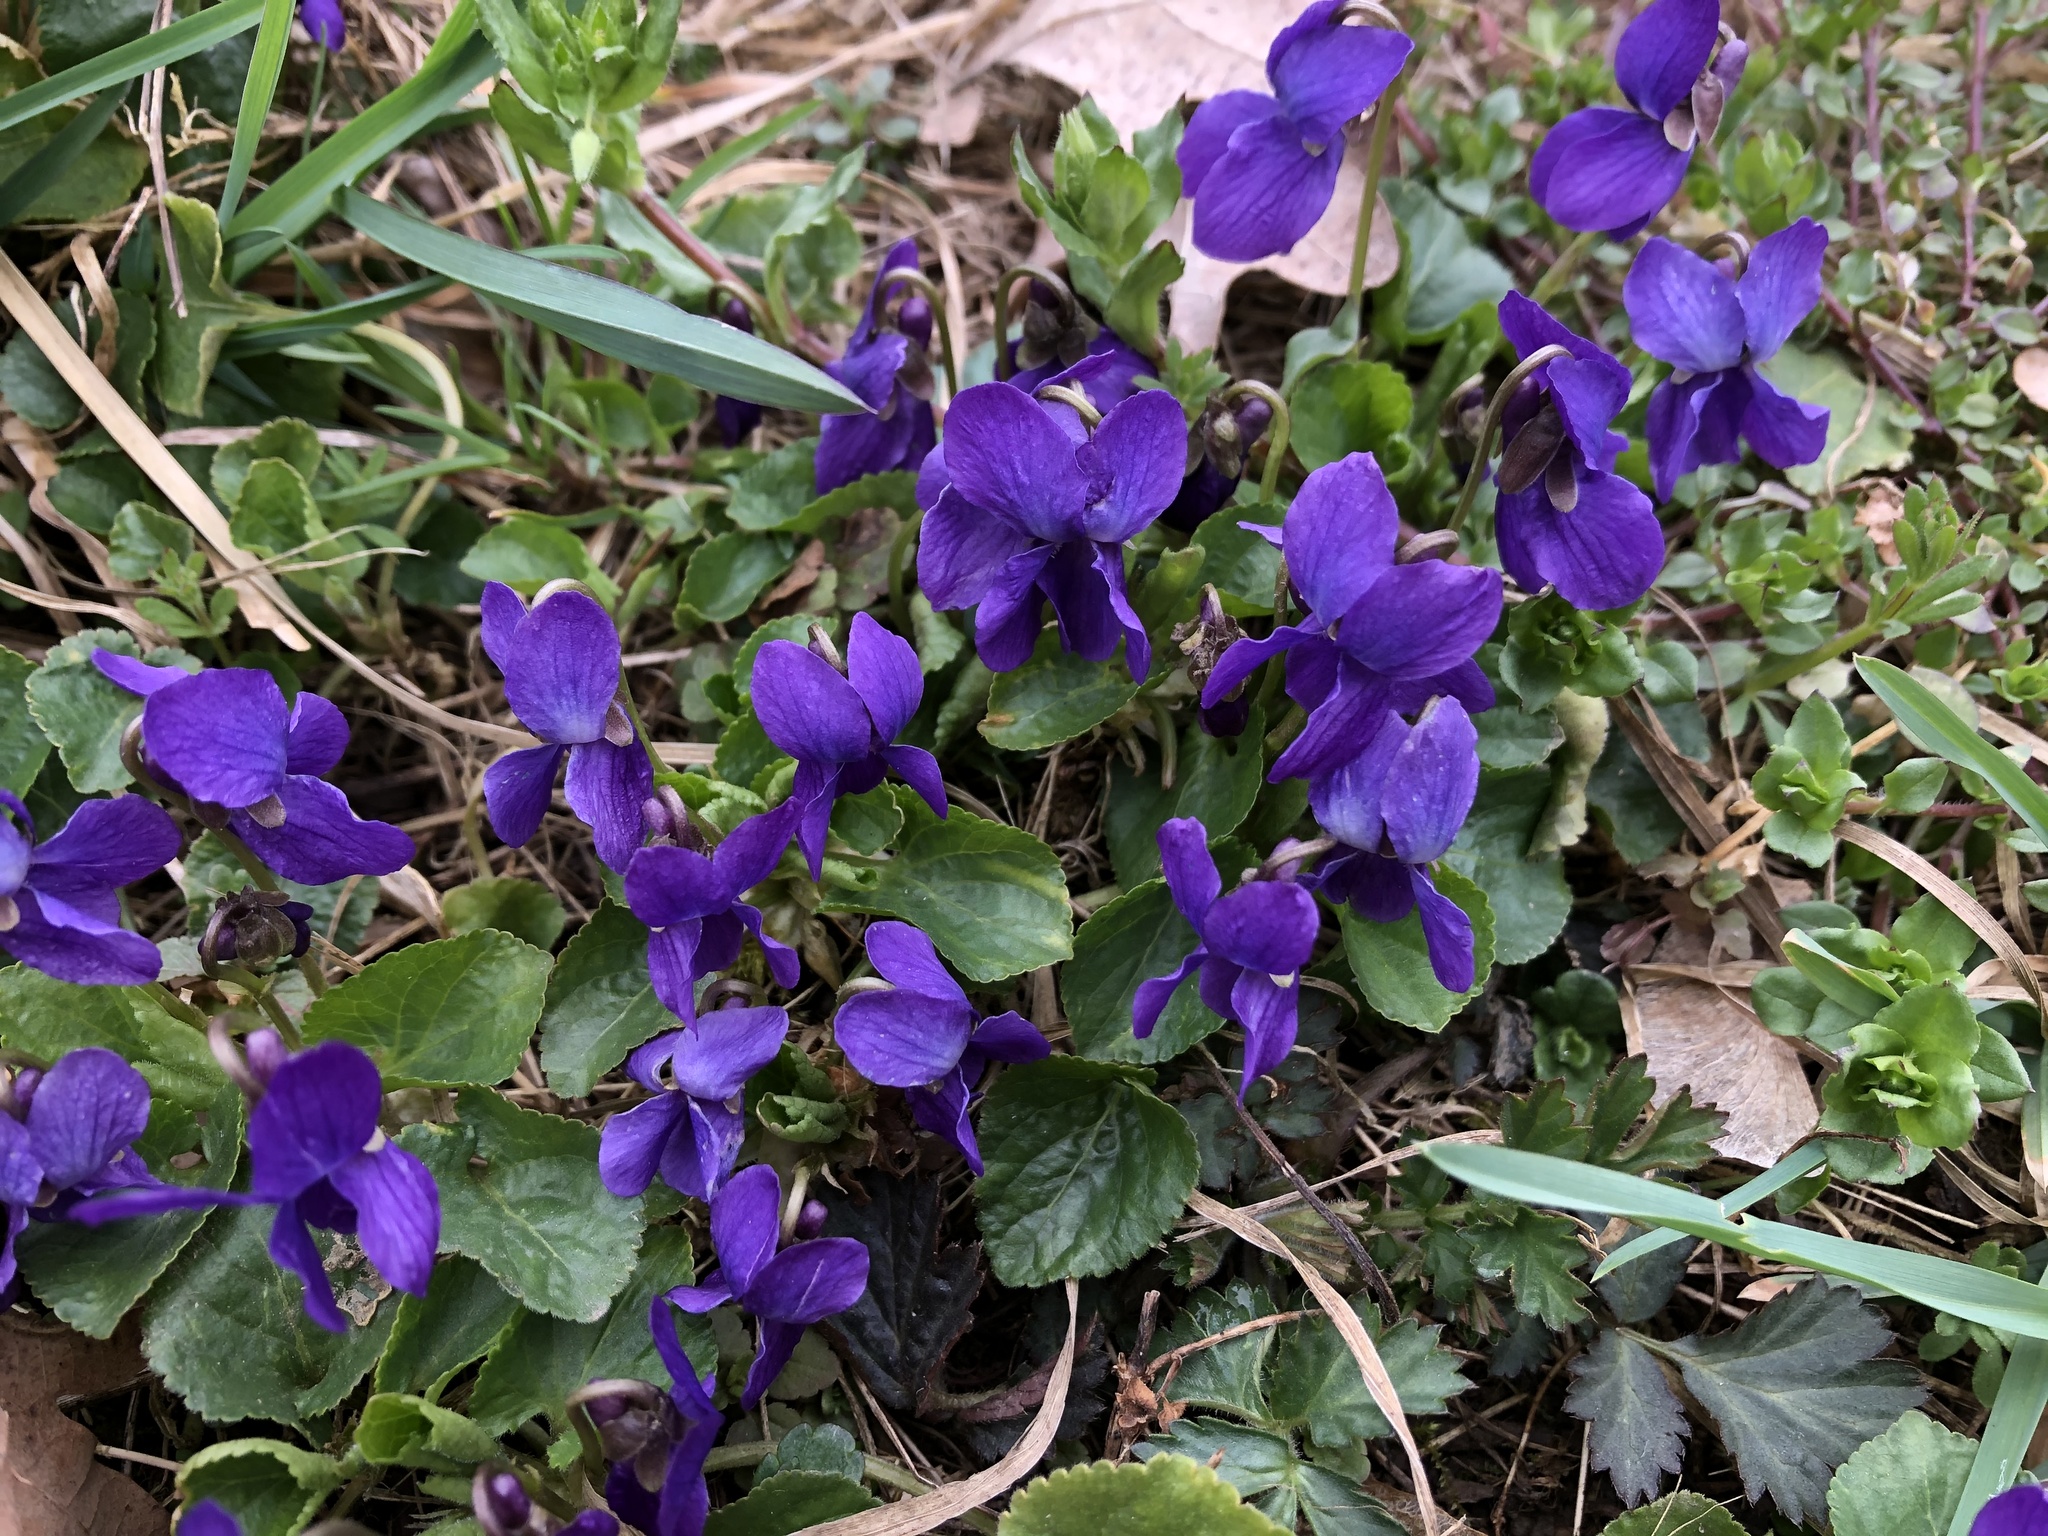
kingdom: Plantae
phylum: Tracheophyta
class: Magnoliopsida
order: Malpighiales
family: Violaceae
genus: Viola
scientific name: Viola odorata
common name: Sweet violet
